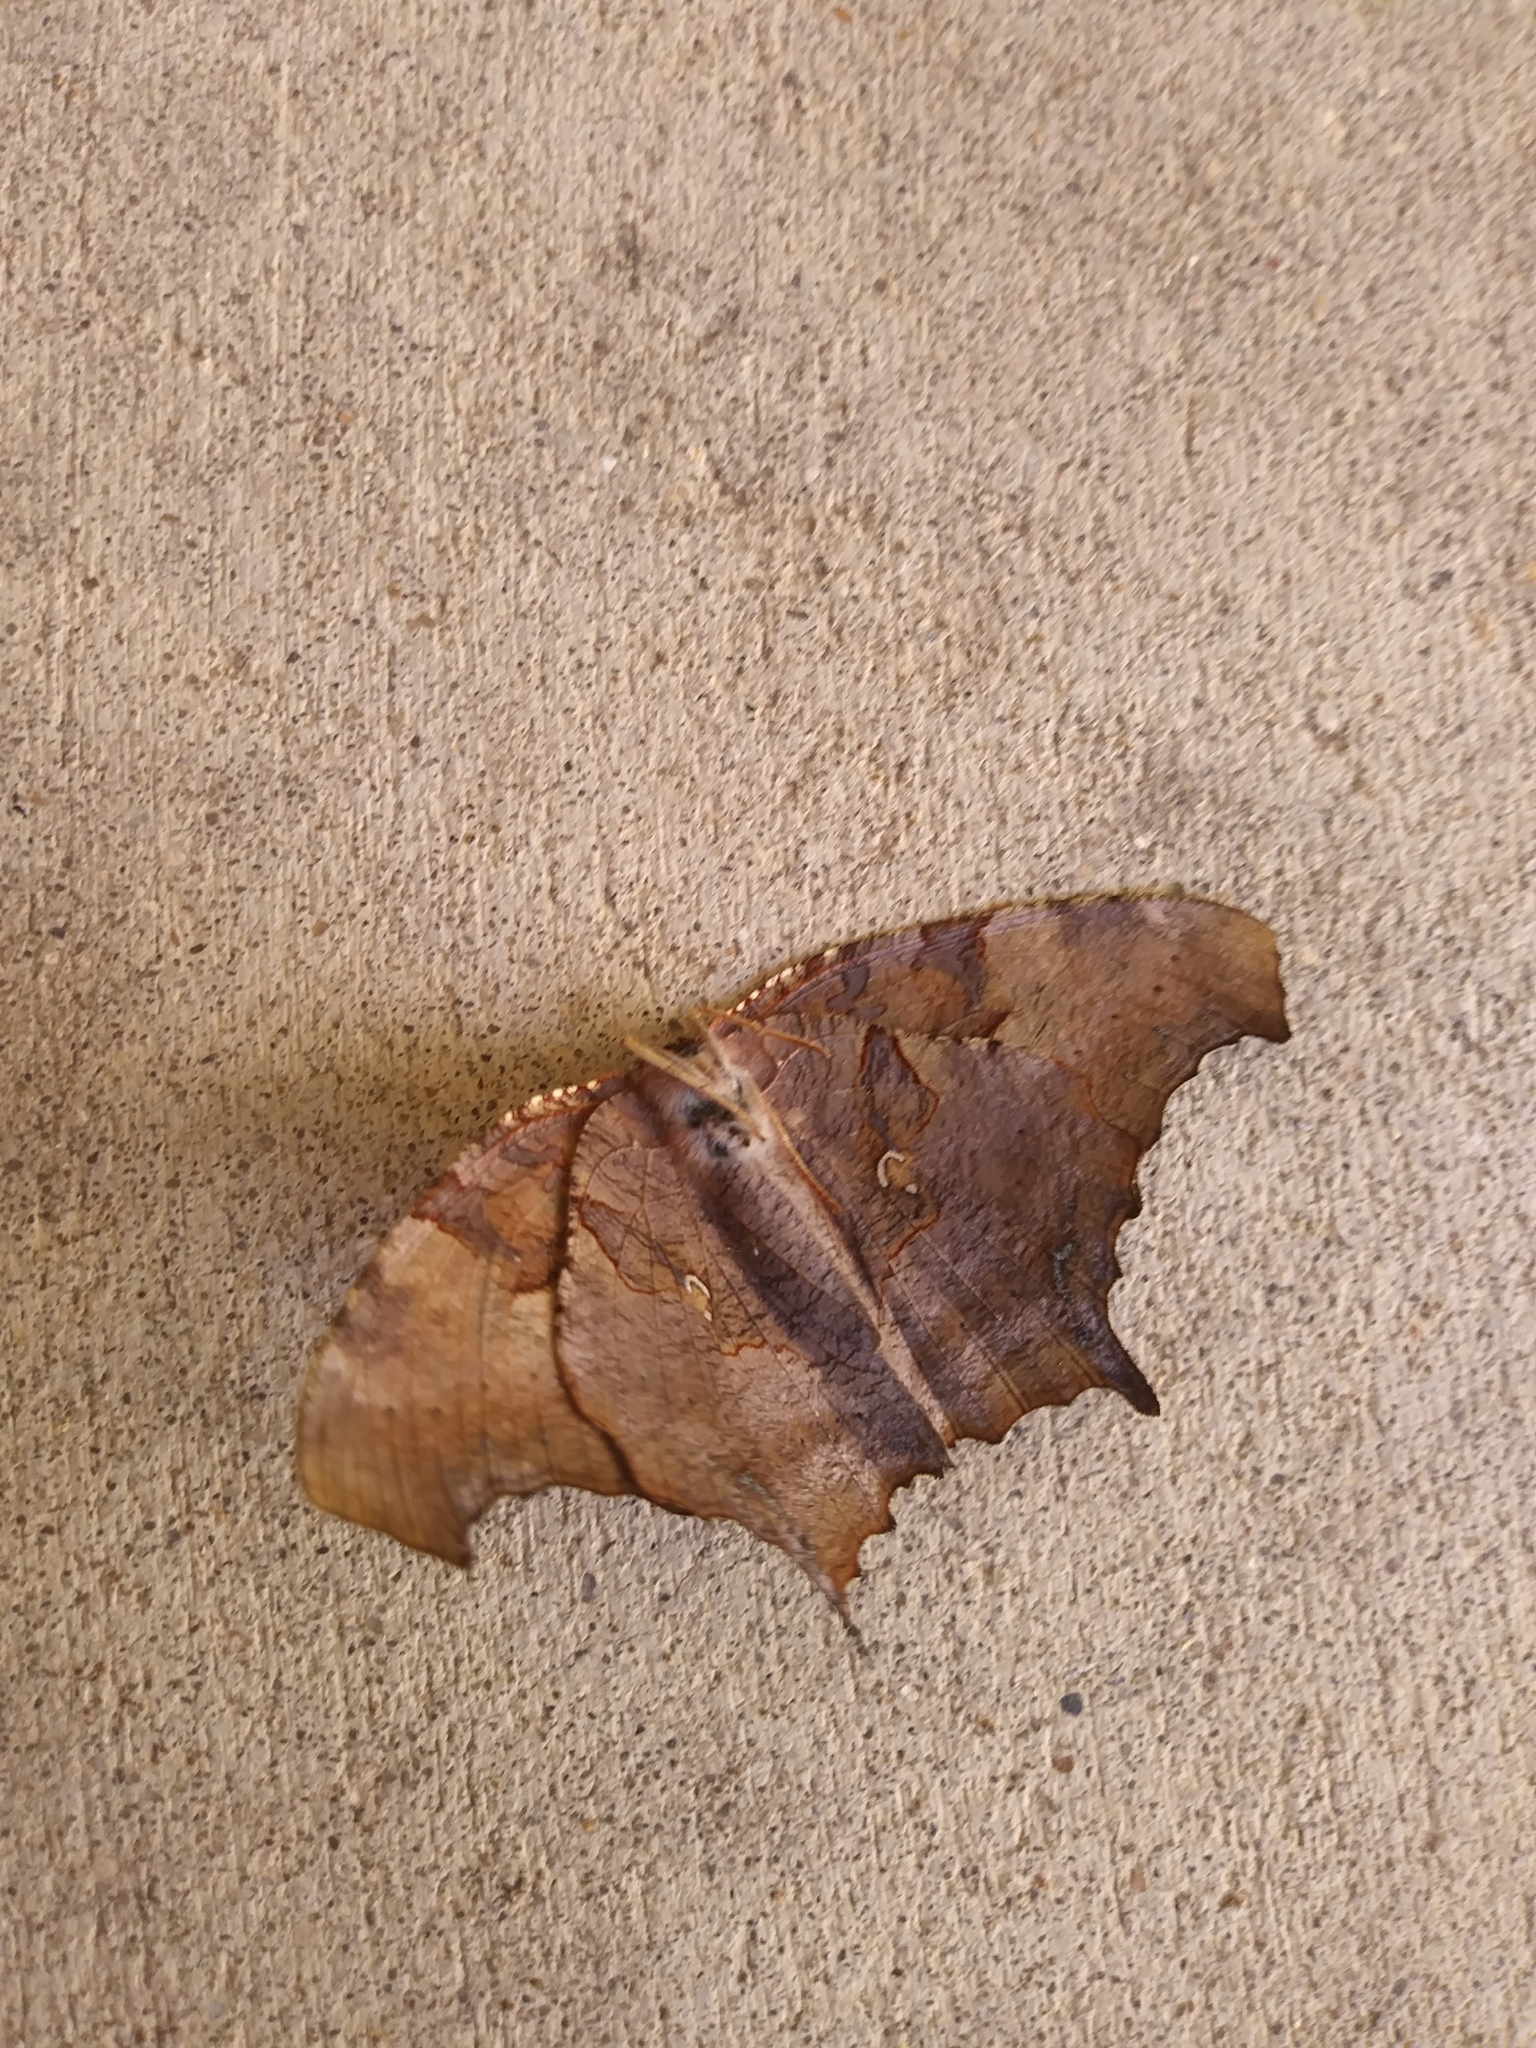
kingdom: Animalia
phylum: Arthropoda
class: Insecta
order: Lepidoptera
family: Nymphalidae
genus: Polygonia
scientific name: Polygonia interrogationis
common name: Question mark
